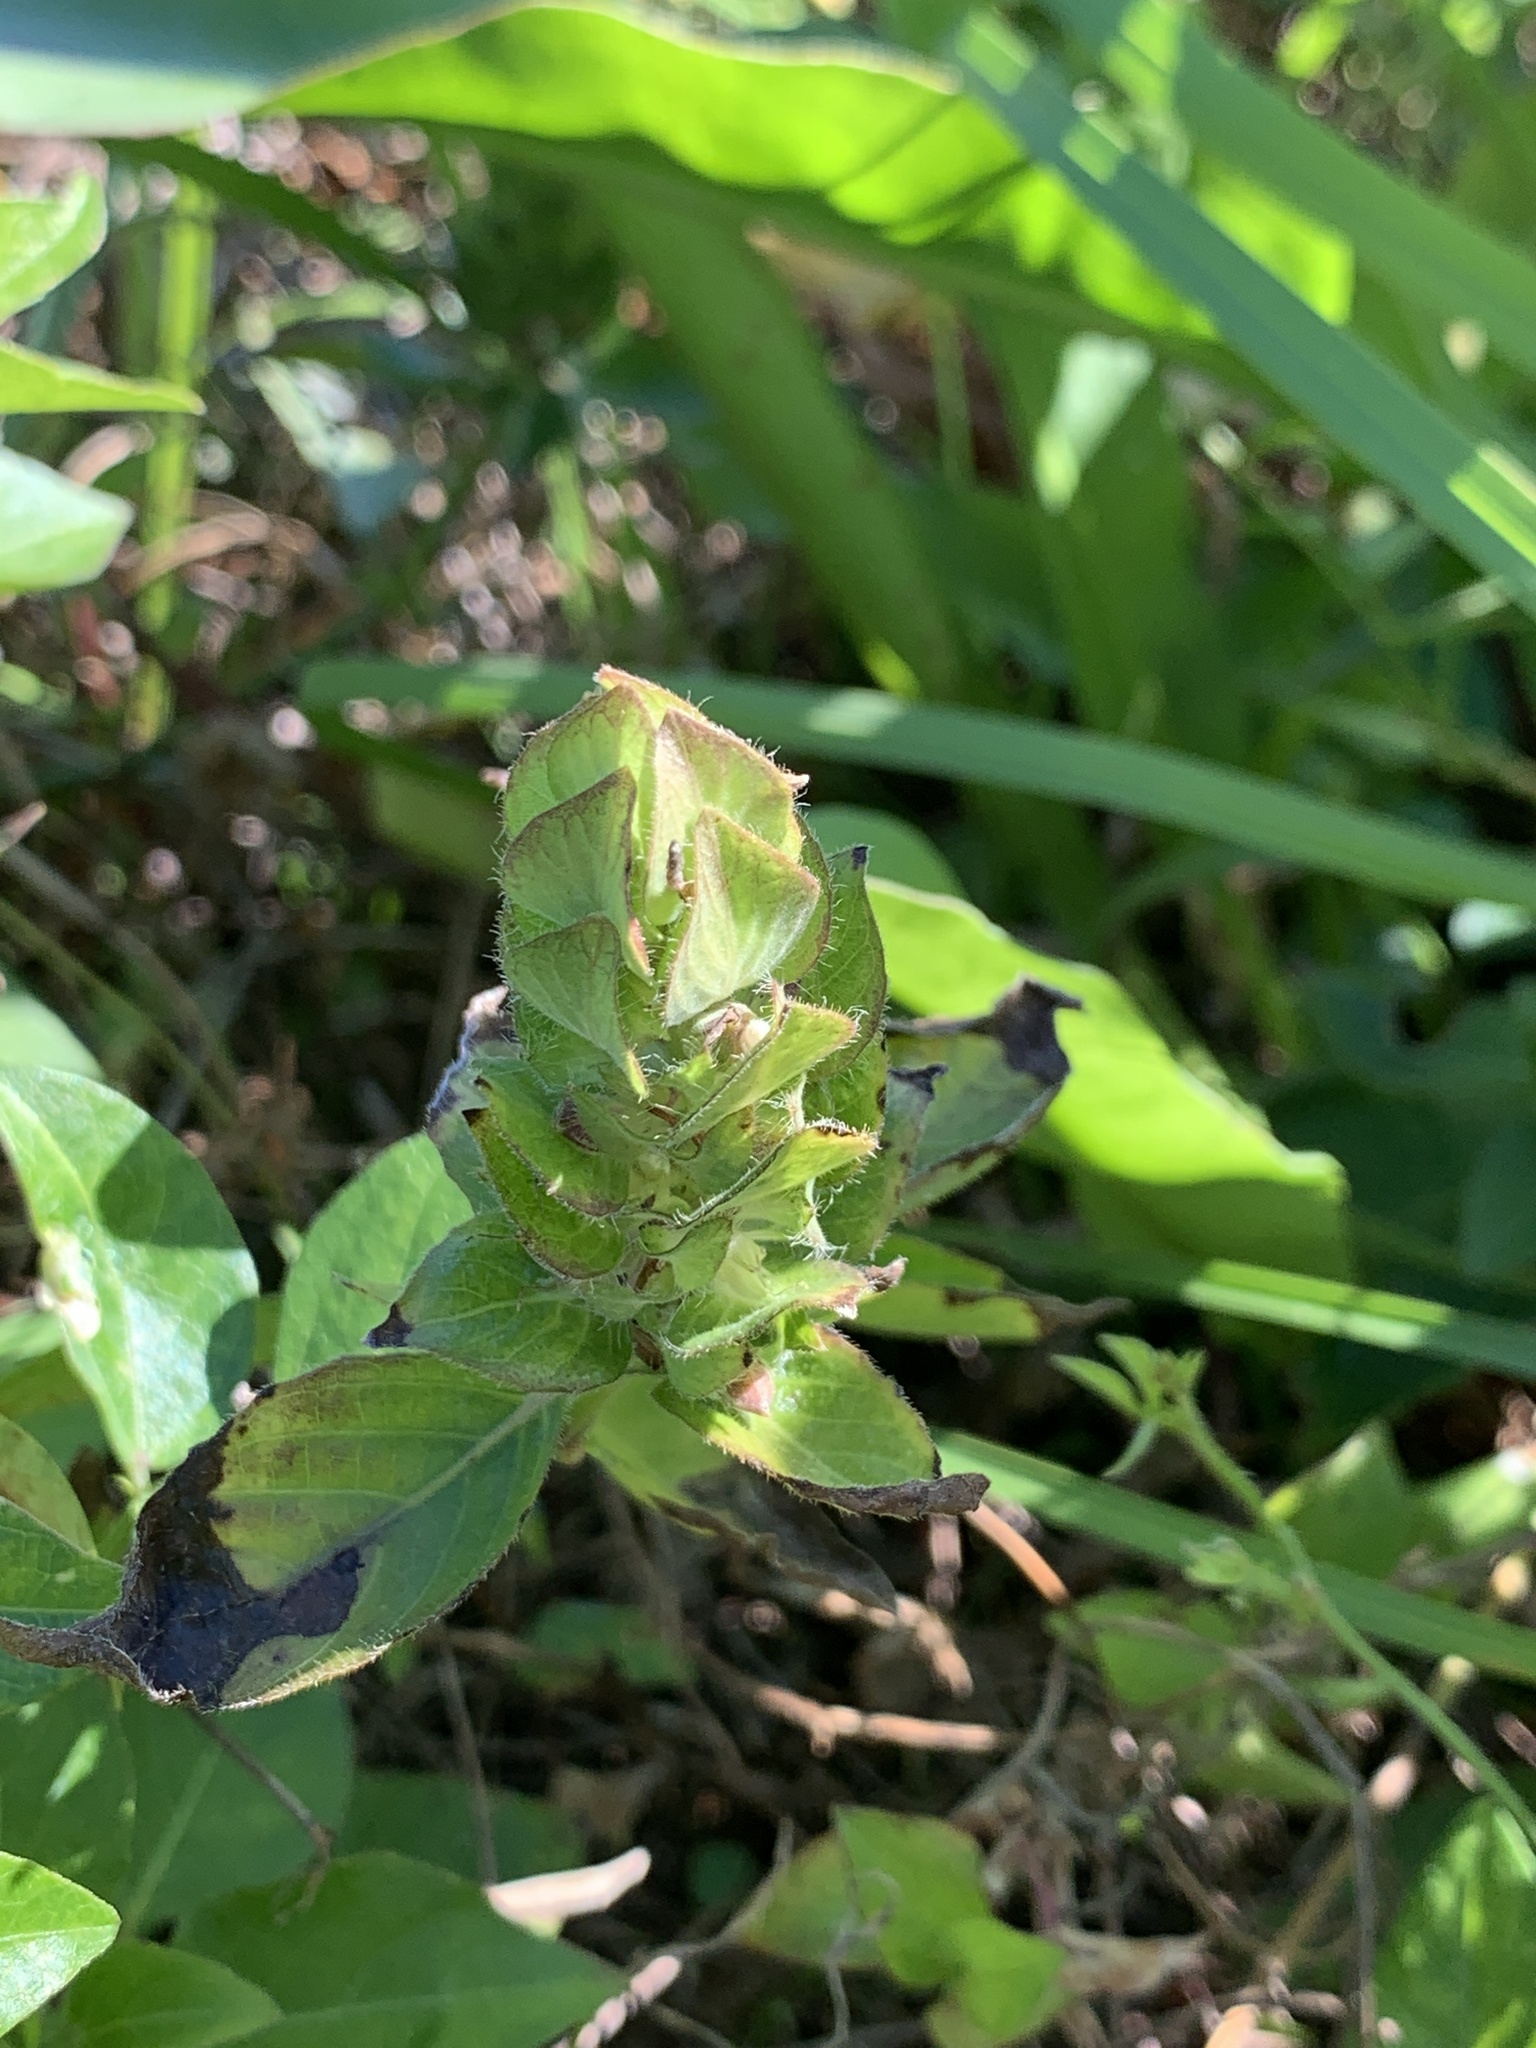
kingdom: Plantae
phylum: Tracheophyta
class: Magnoliopsida
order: Lamiales
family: Acanthaceae
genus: Ruellia
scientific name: Ruellia blechum
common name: Browne's blechum
